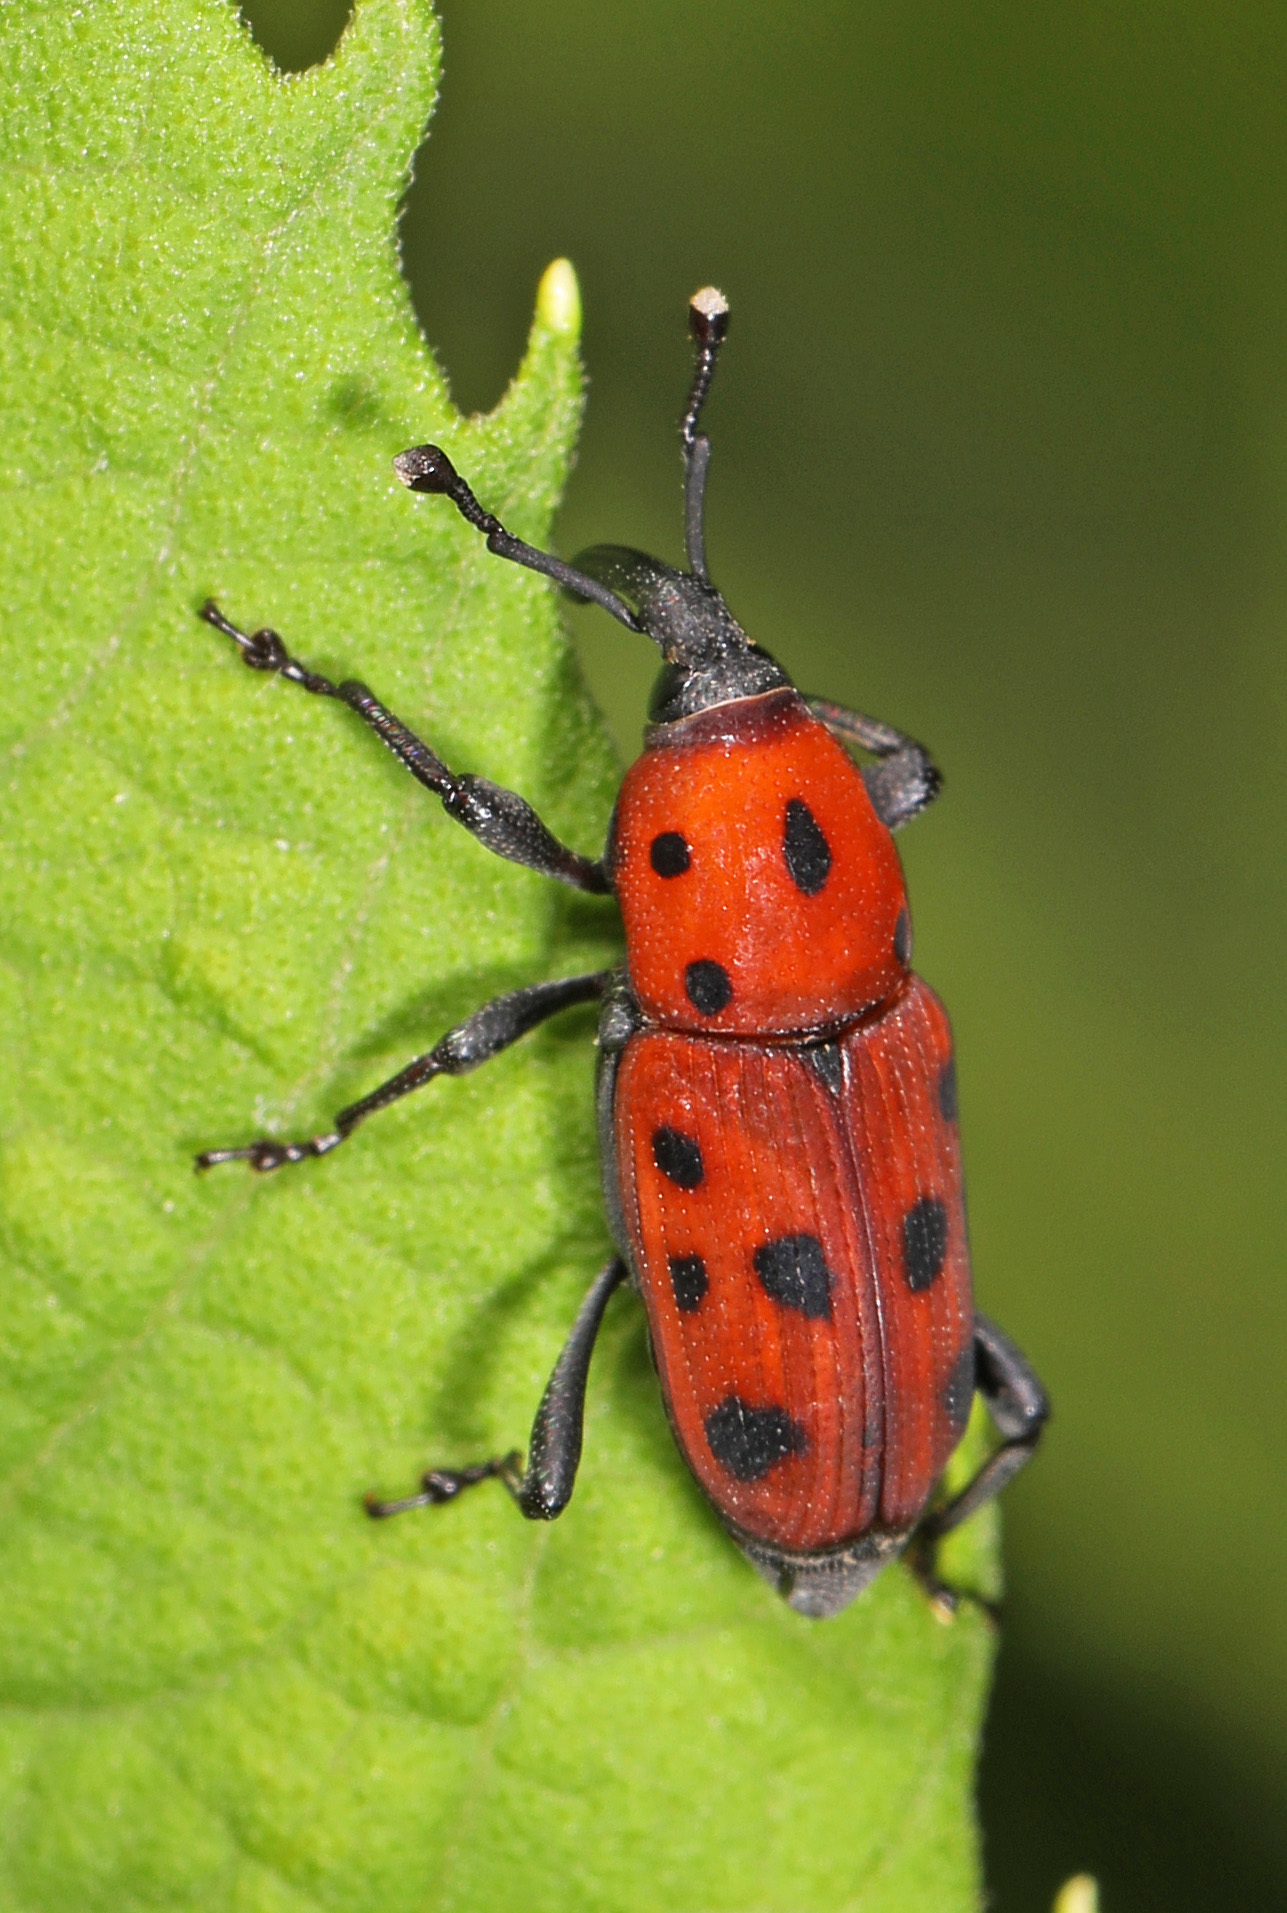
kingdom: Animalia
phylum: Arthropoda
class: Insecta
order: Coleoptera
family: Dryophthoridae
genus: Rhodobaenus
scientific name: Rhodobaenus tredecimpunctatus
